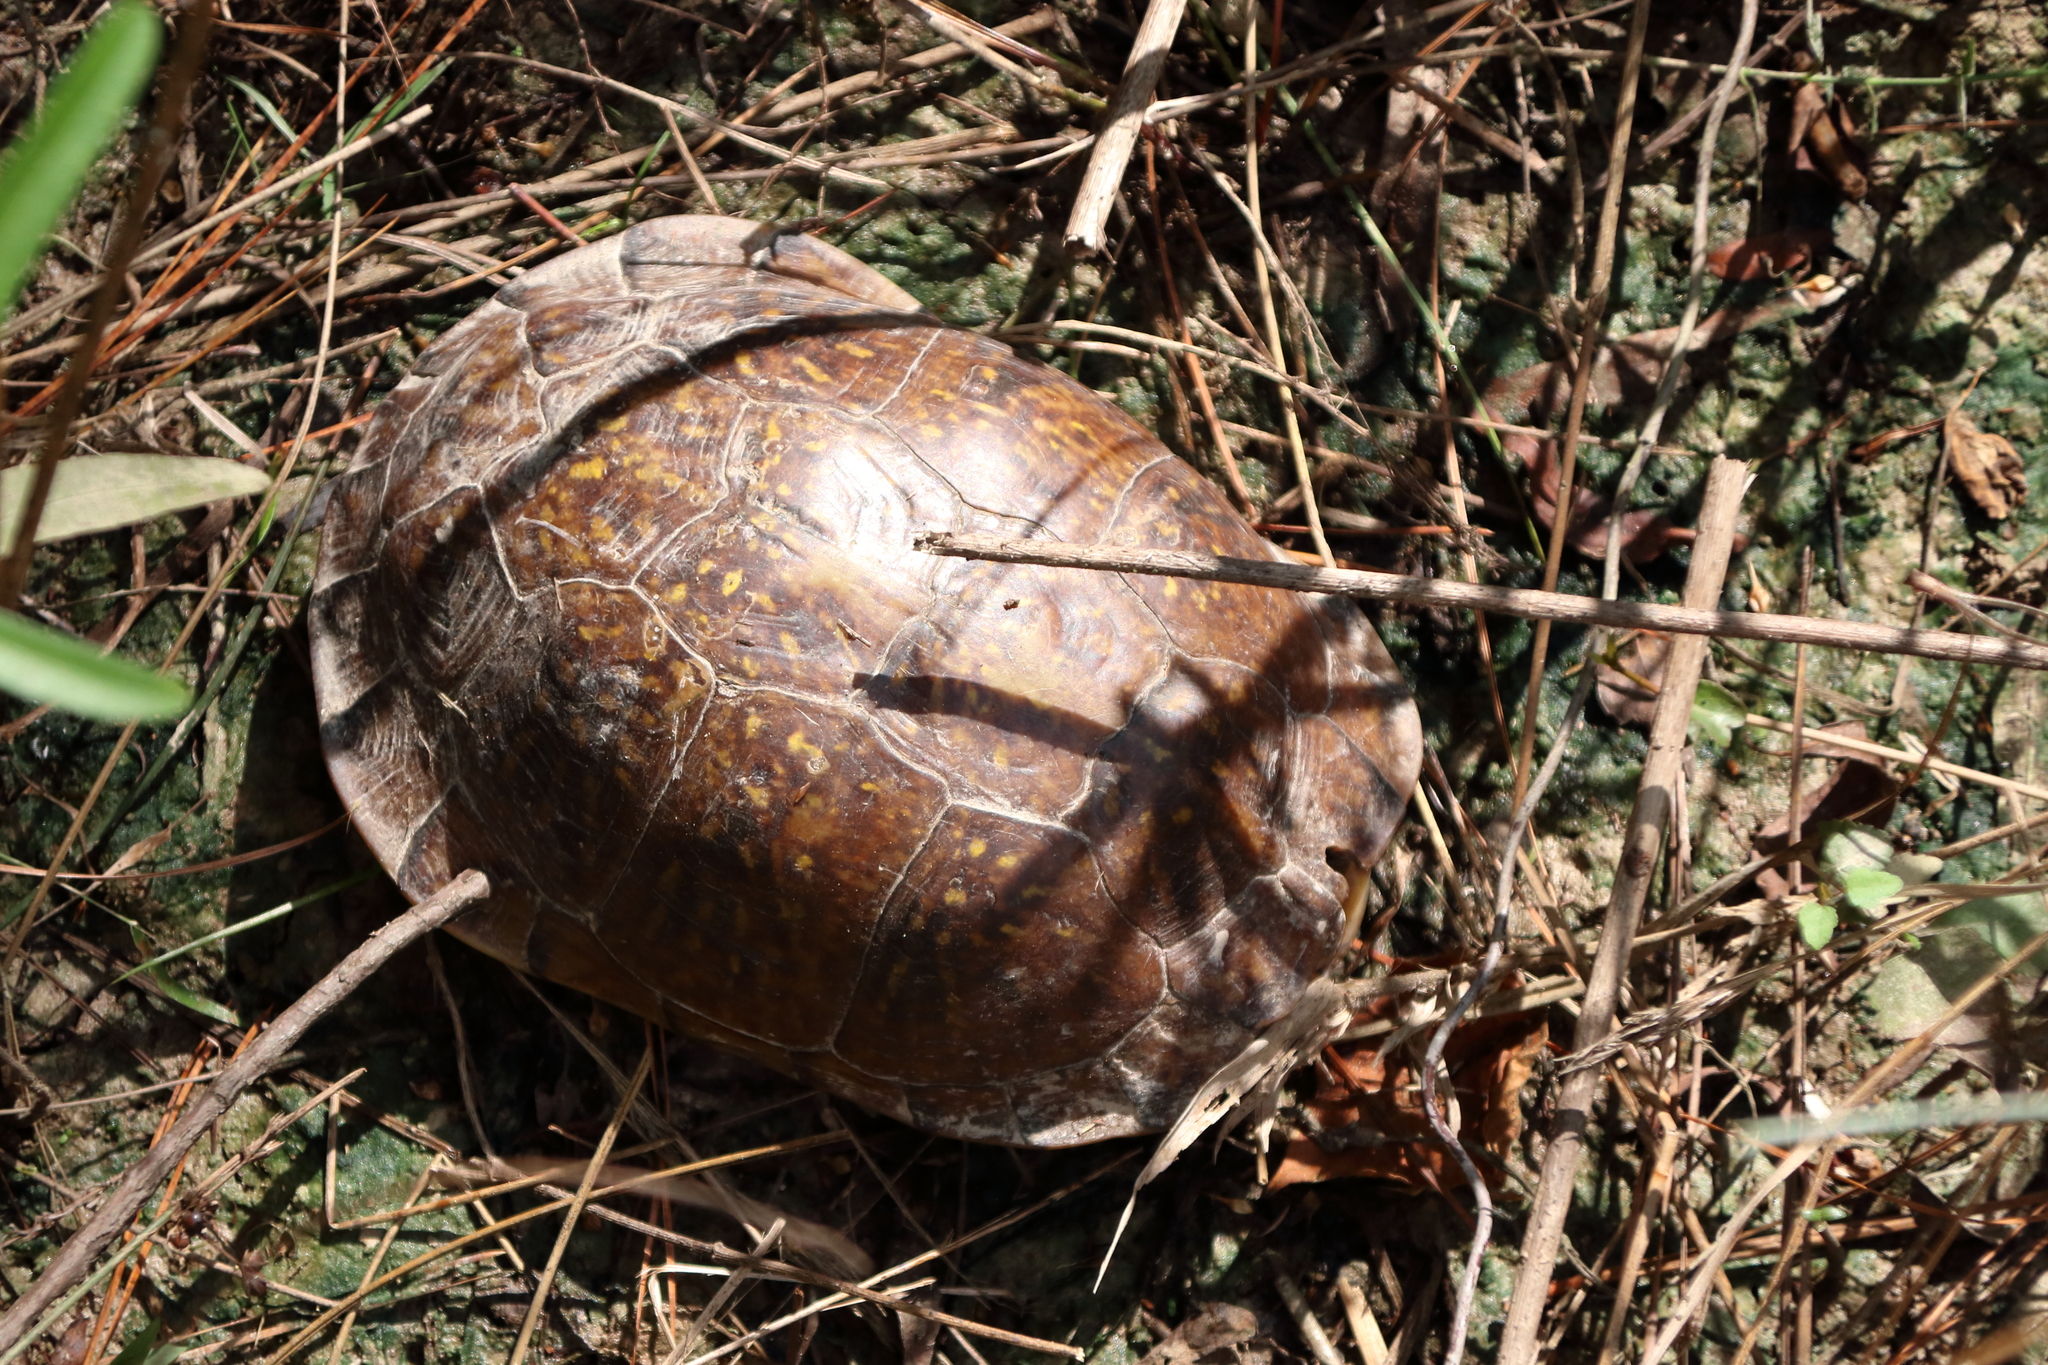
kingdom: Animalia
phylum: Chordata
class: Testudines
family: Emydidae
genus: Terrapene
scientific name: Terrapene carolina
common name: Common box turtle
